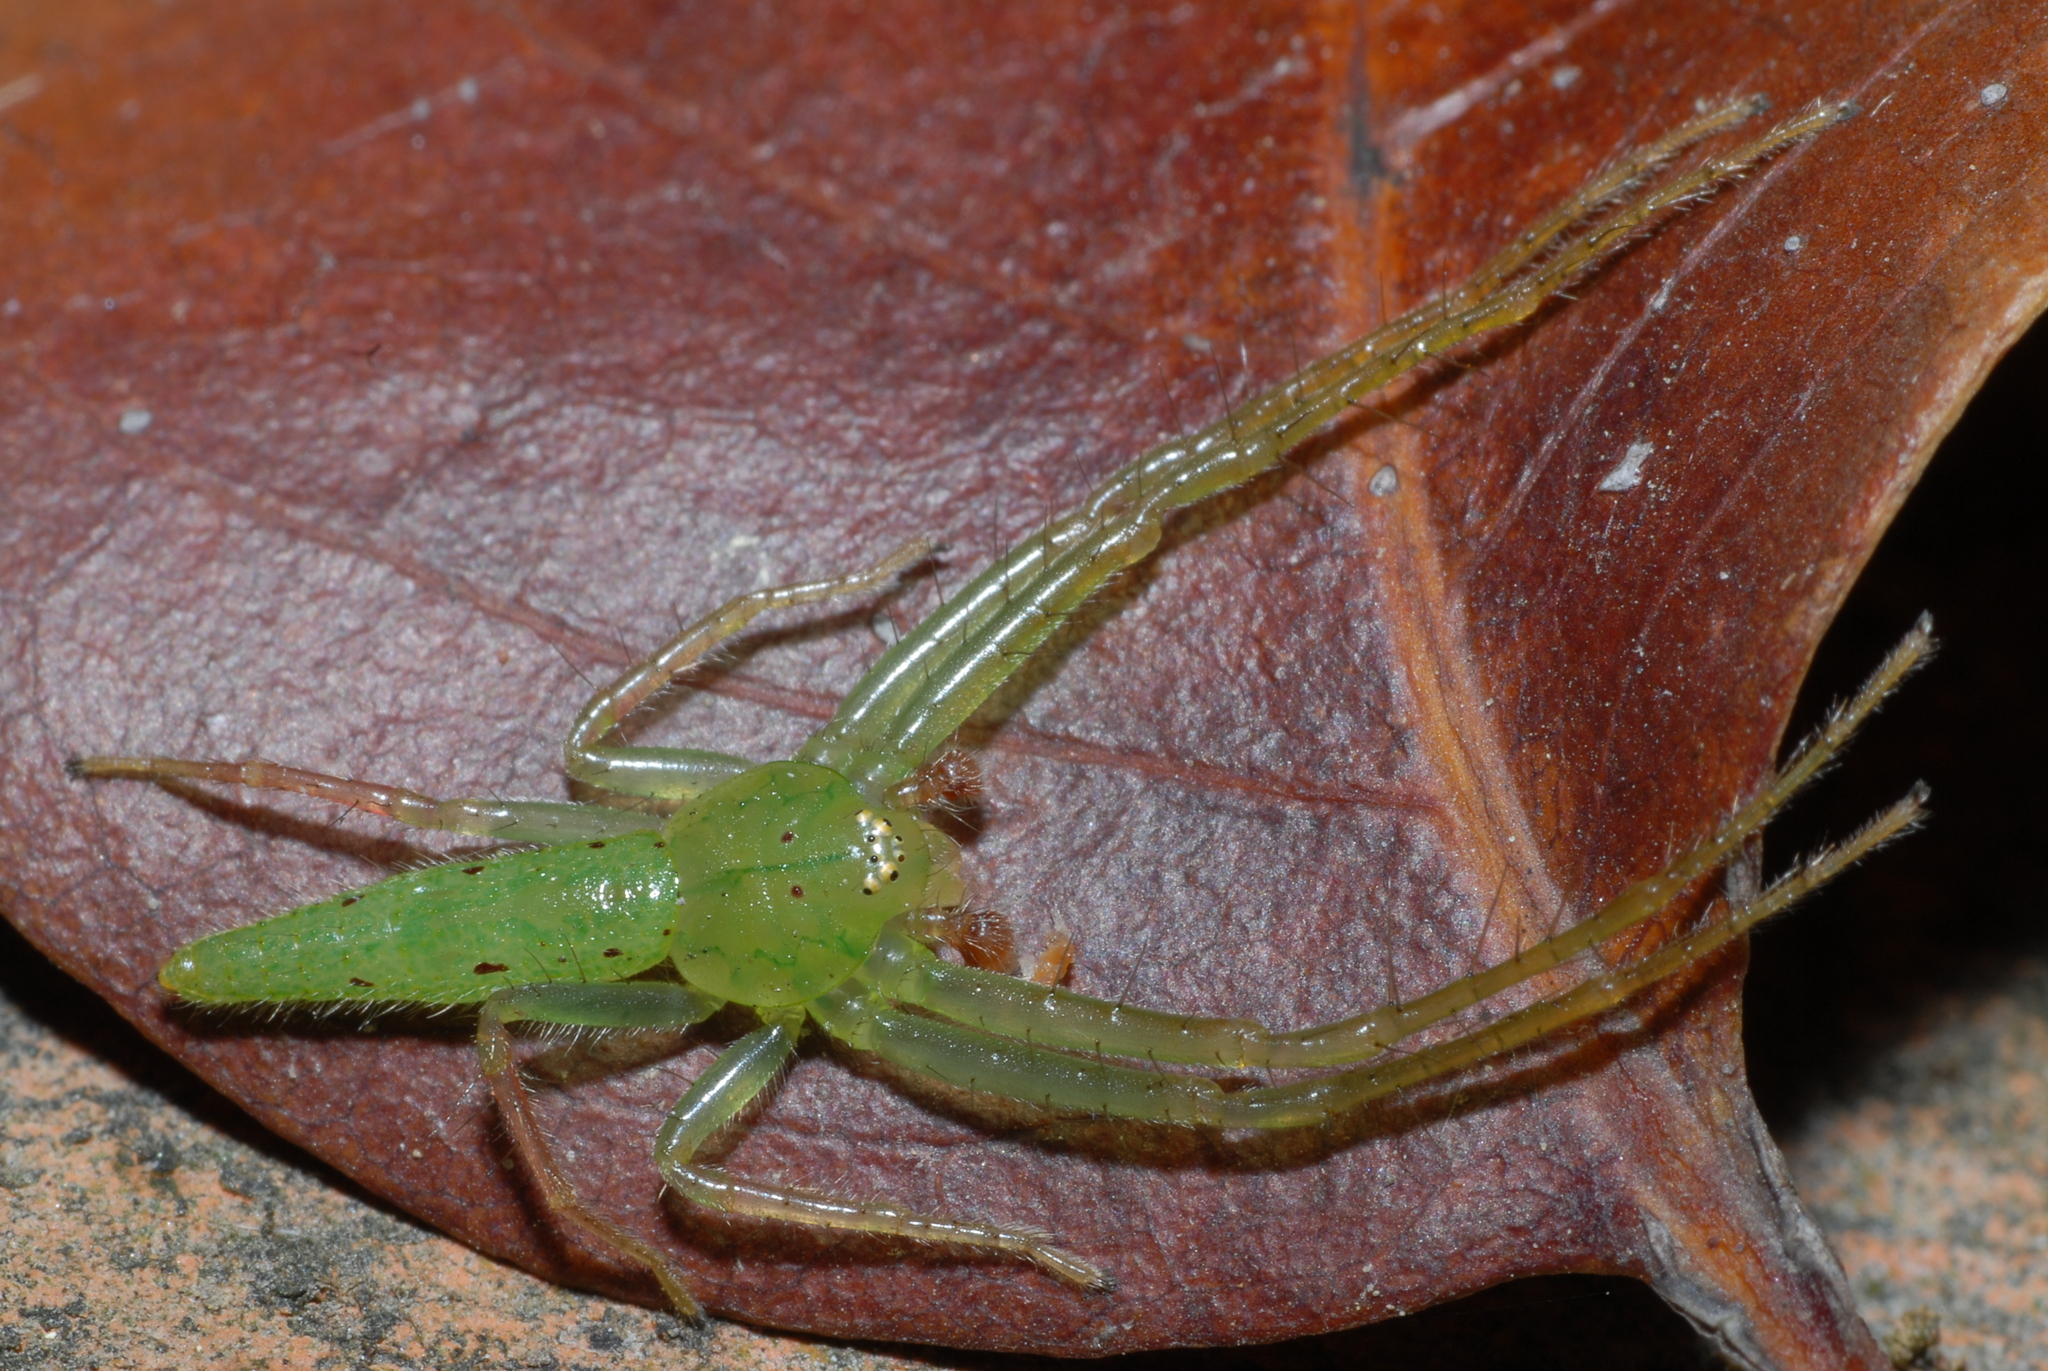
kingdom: Animalia
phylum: Arthropoda
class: Arachnida
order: Araneae
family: Thomisidae
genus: Oxytate
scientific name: Oxytate striatipes
